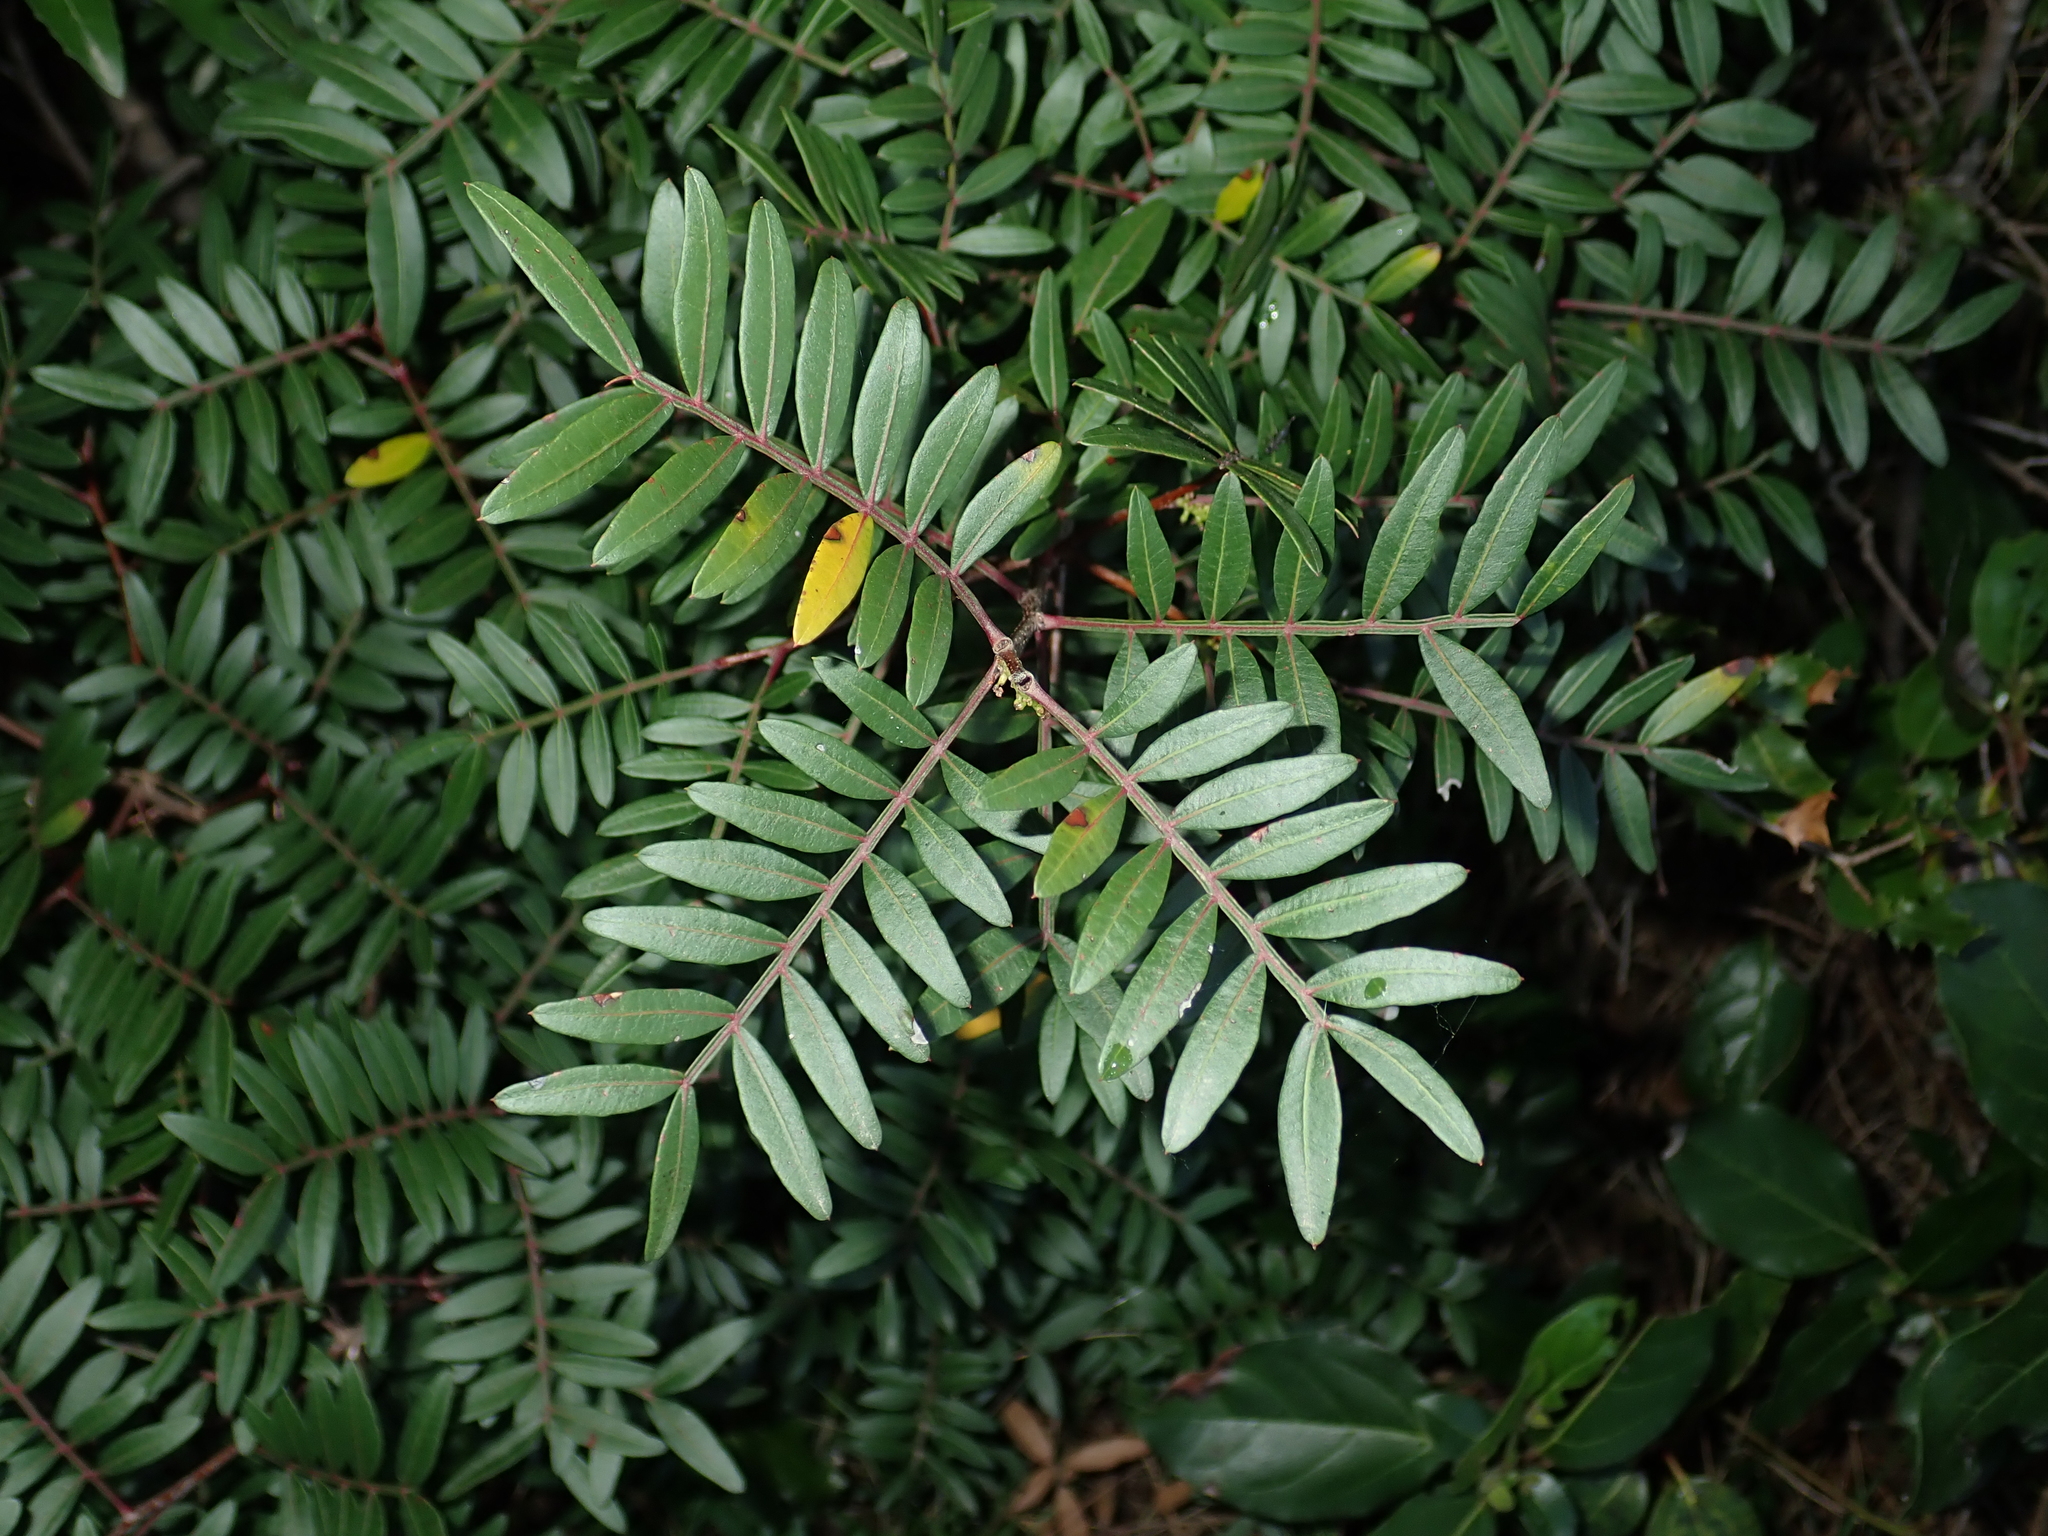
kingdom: Plantae
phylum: Tracheophyta
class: Magnoliopsida
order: Sapindales
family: Anacardiaceae
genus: Pistacia
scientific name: Pistacia lentiscus
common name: Lentisk
